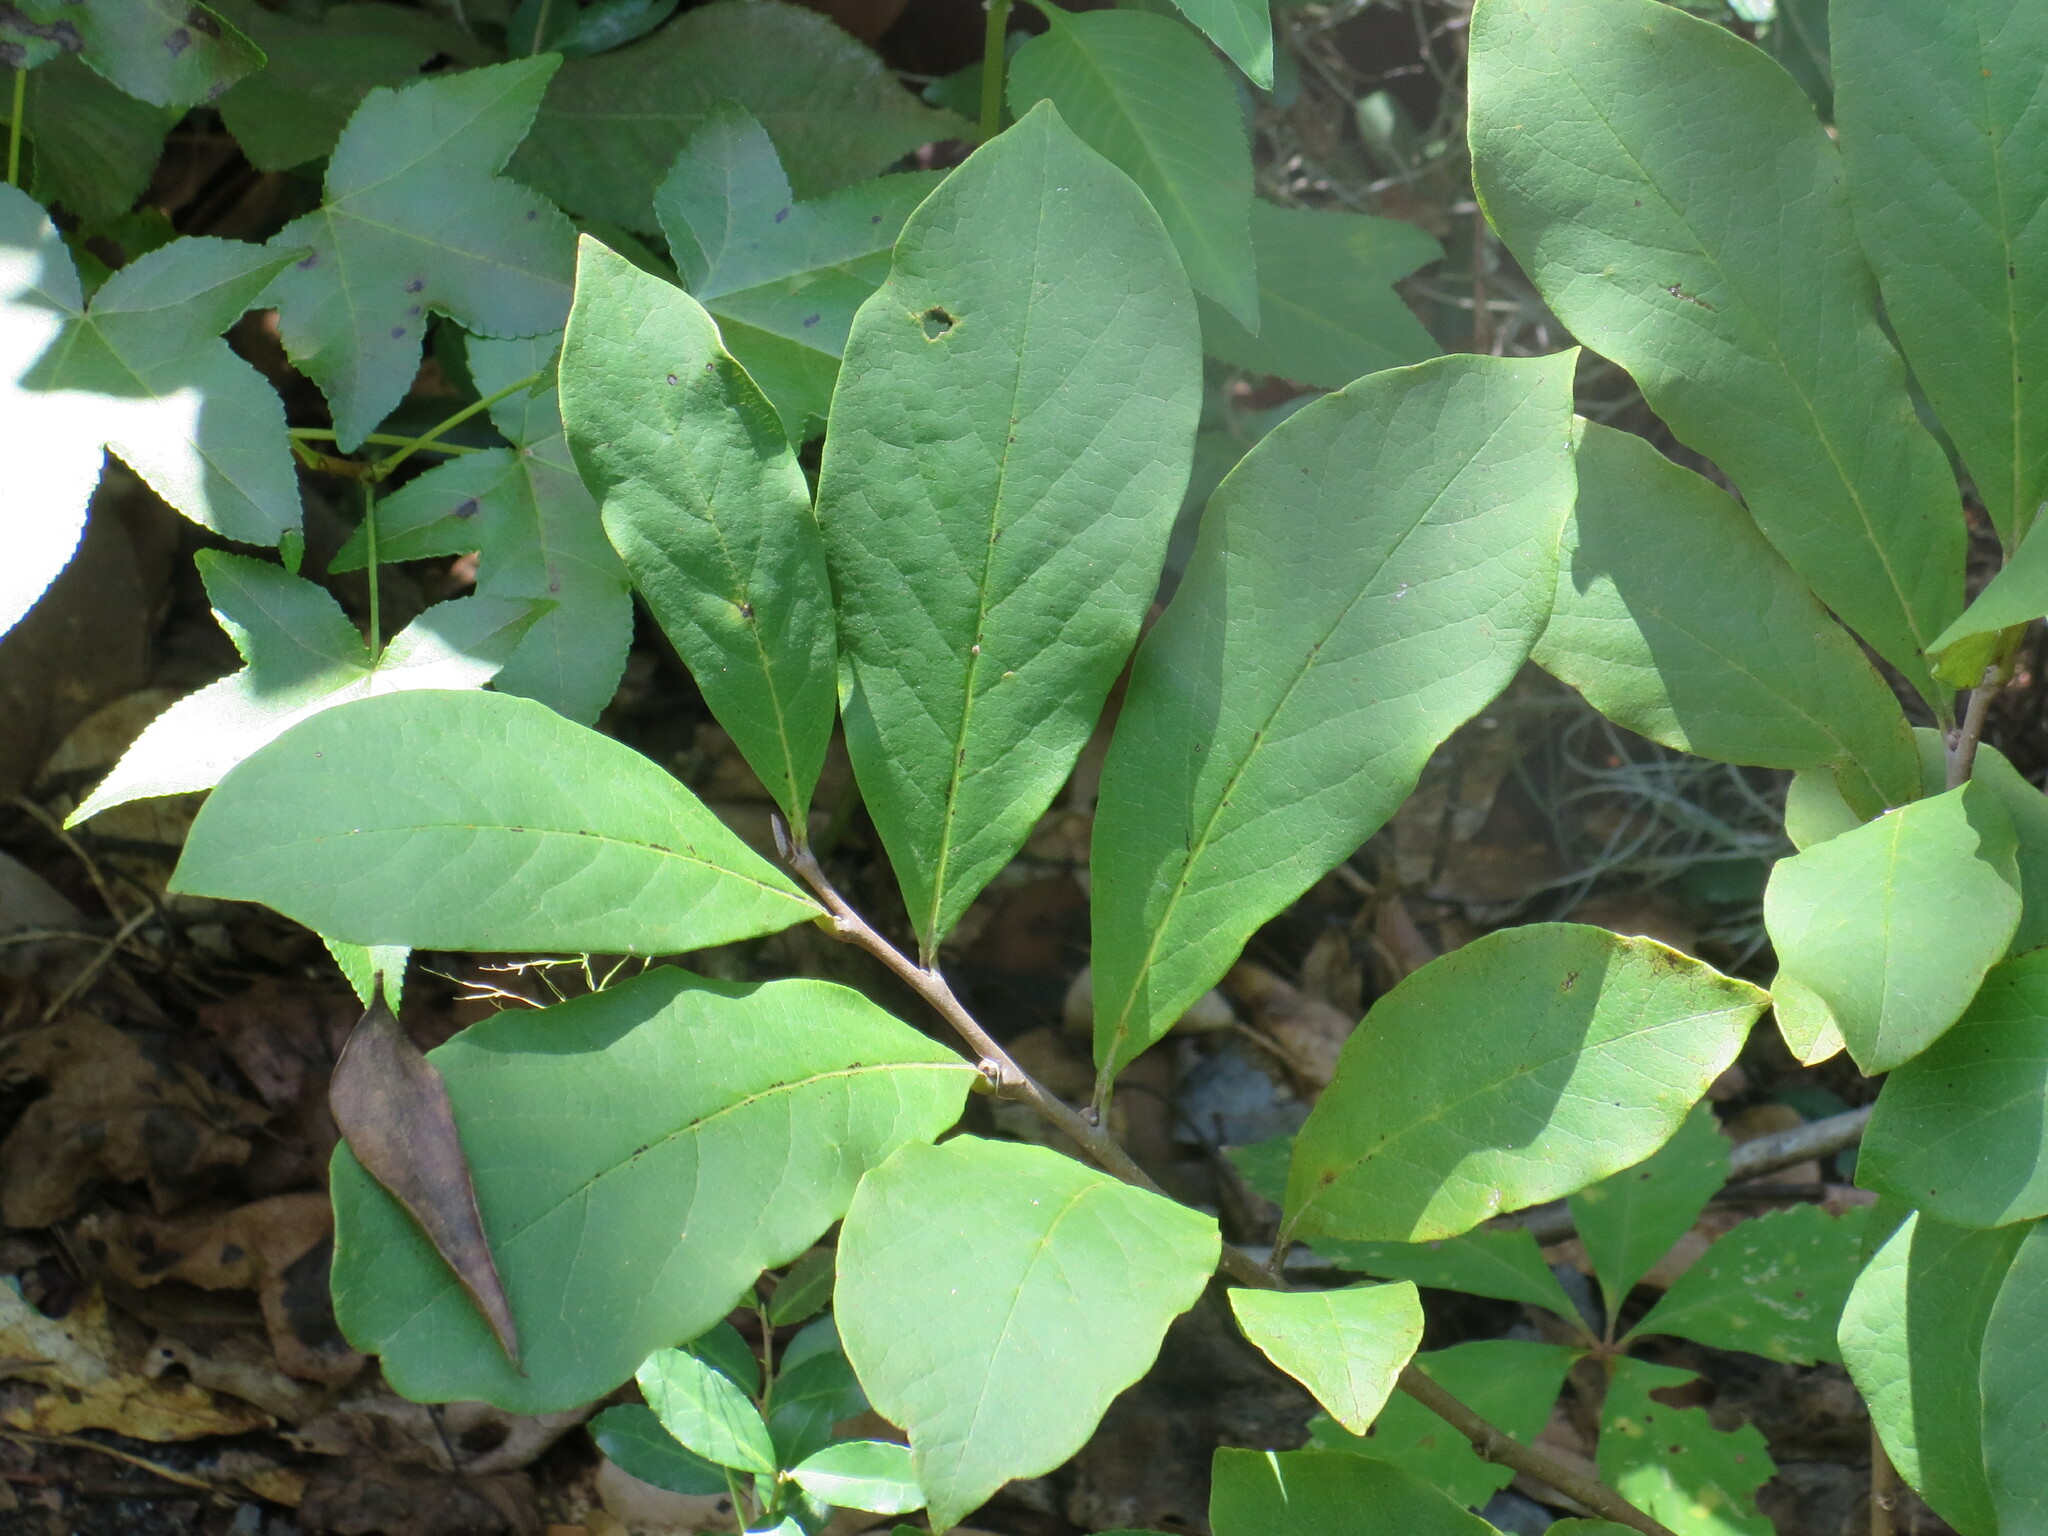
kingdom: Plantae
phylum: Tracheophyta
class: Magnoliopsida
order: Magnoliales
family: Annonaceae
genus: Asimina
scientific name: Asimina parviflora
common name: Dwarf pawpaw
